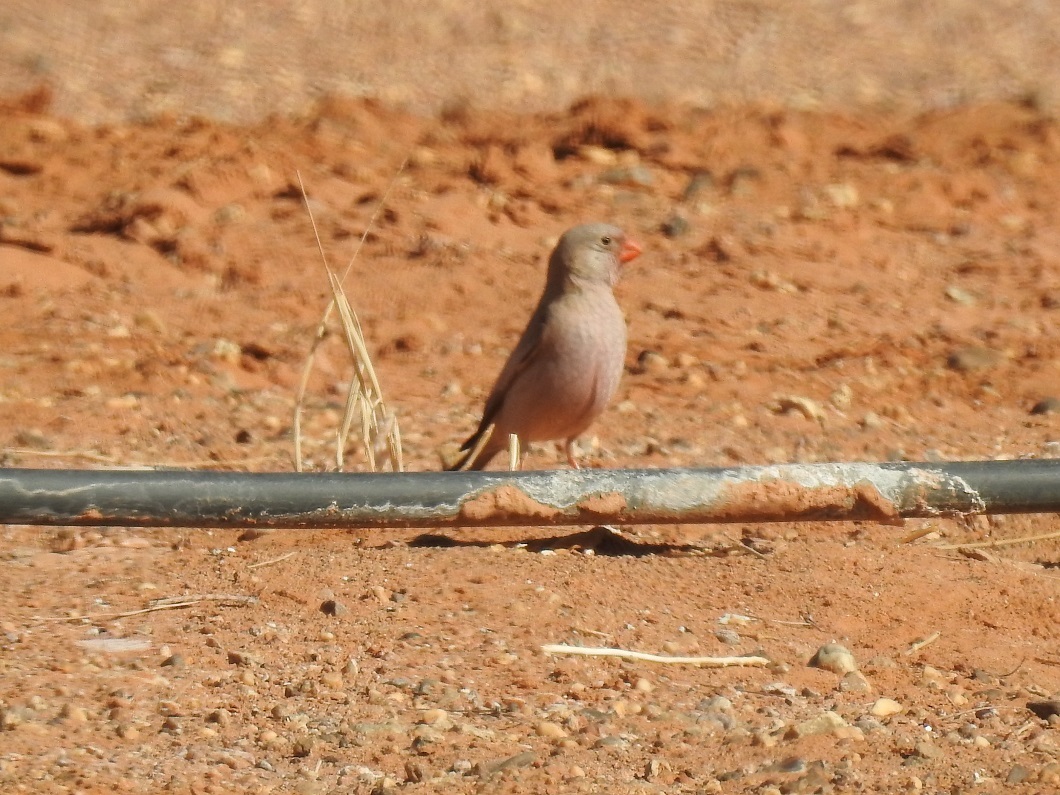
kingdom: Animalia
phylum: Chordata
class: Aves
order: Passeriformes
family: Fringillidae
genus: Bucanetes
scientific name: Bucanetes githagineus
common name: Trumpeter finch
